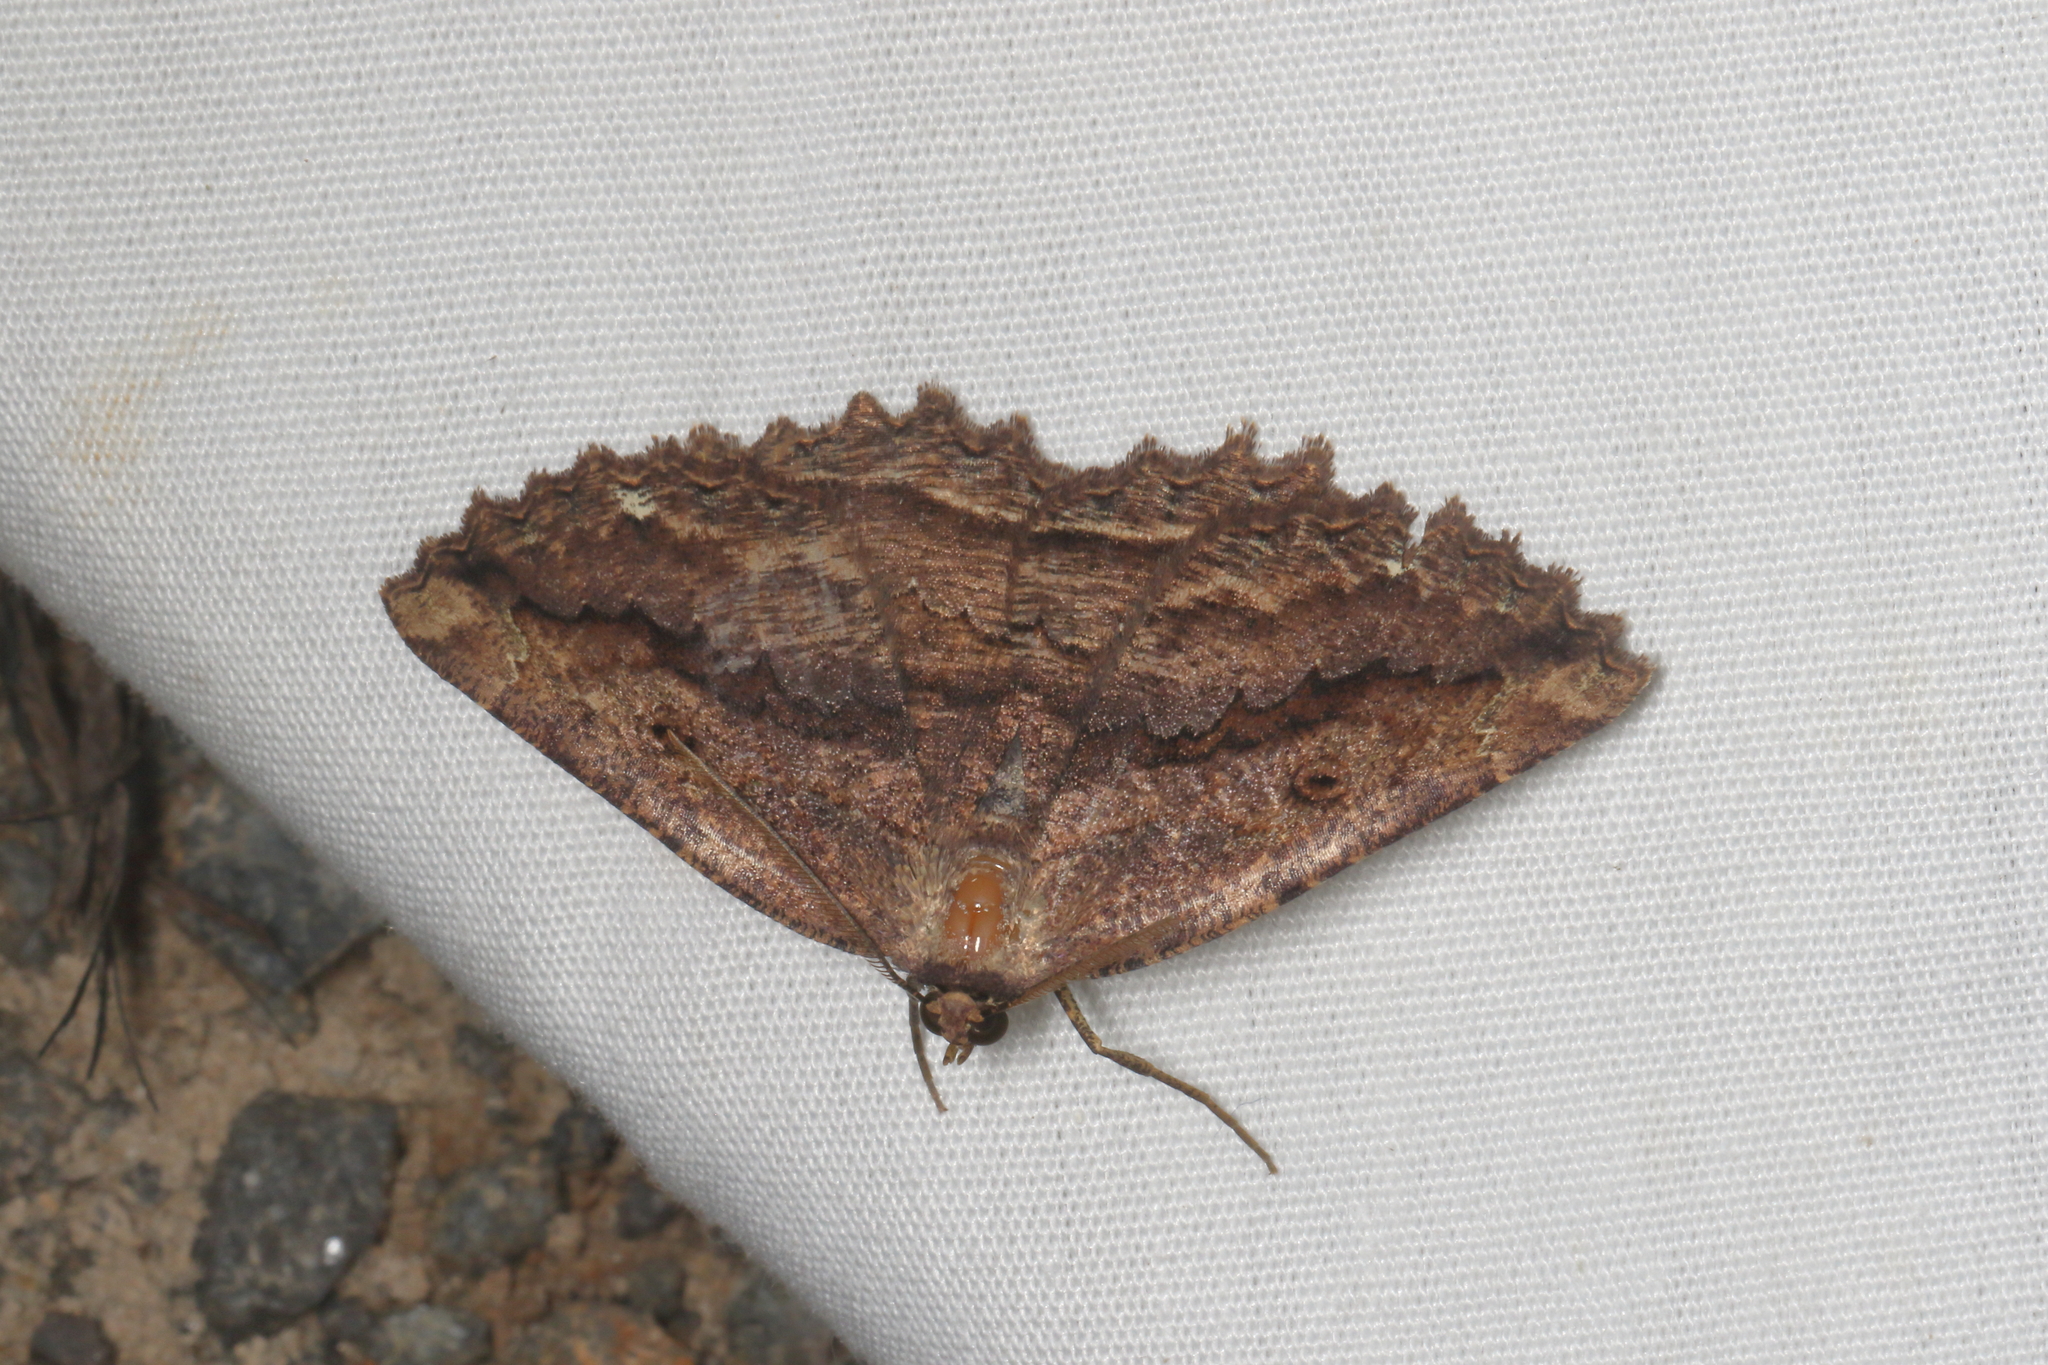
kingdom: Animalia
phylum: Arthropoda
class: Insecta
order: Lepidoptera
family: Geometridae
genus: Gellonia
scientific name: Gellonia pannularia
